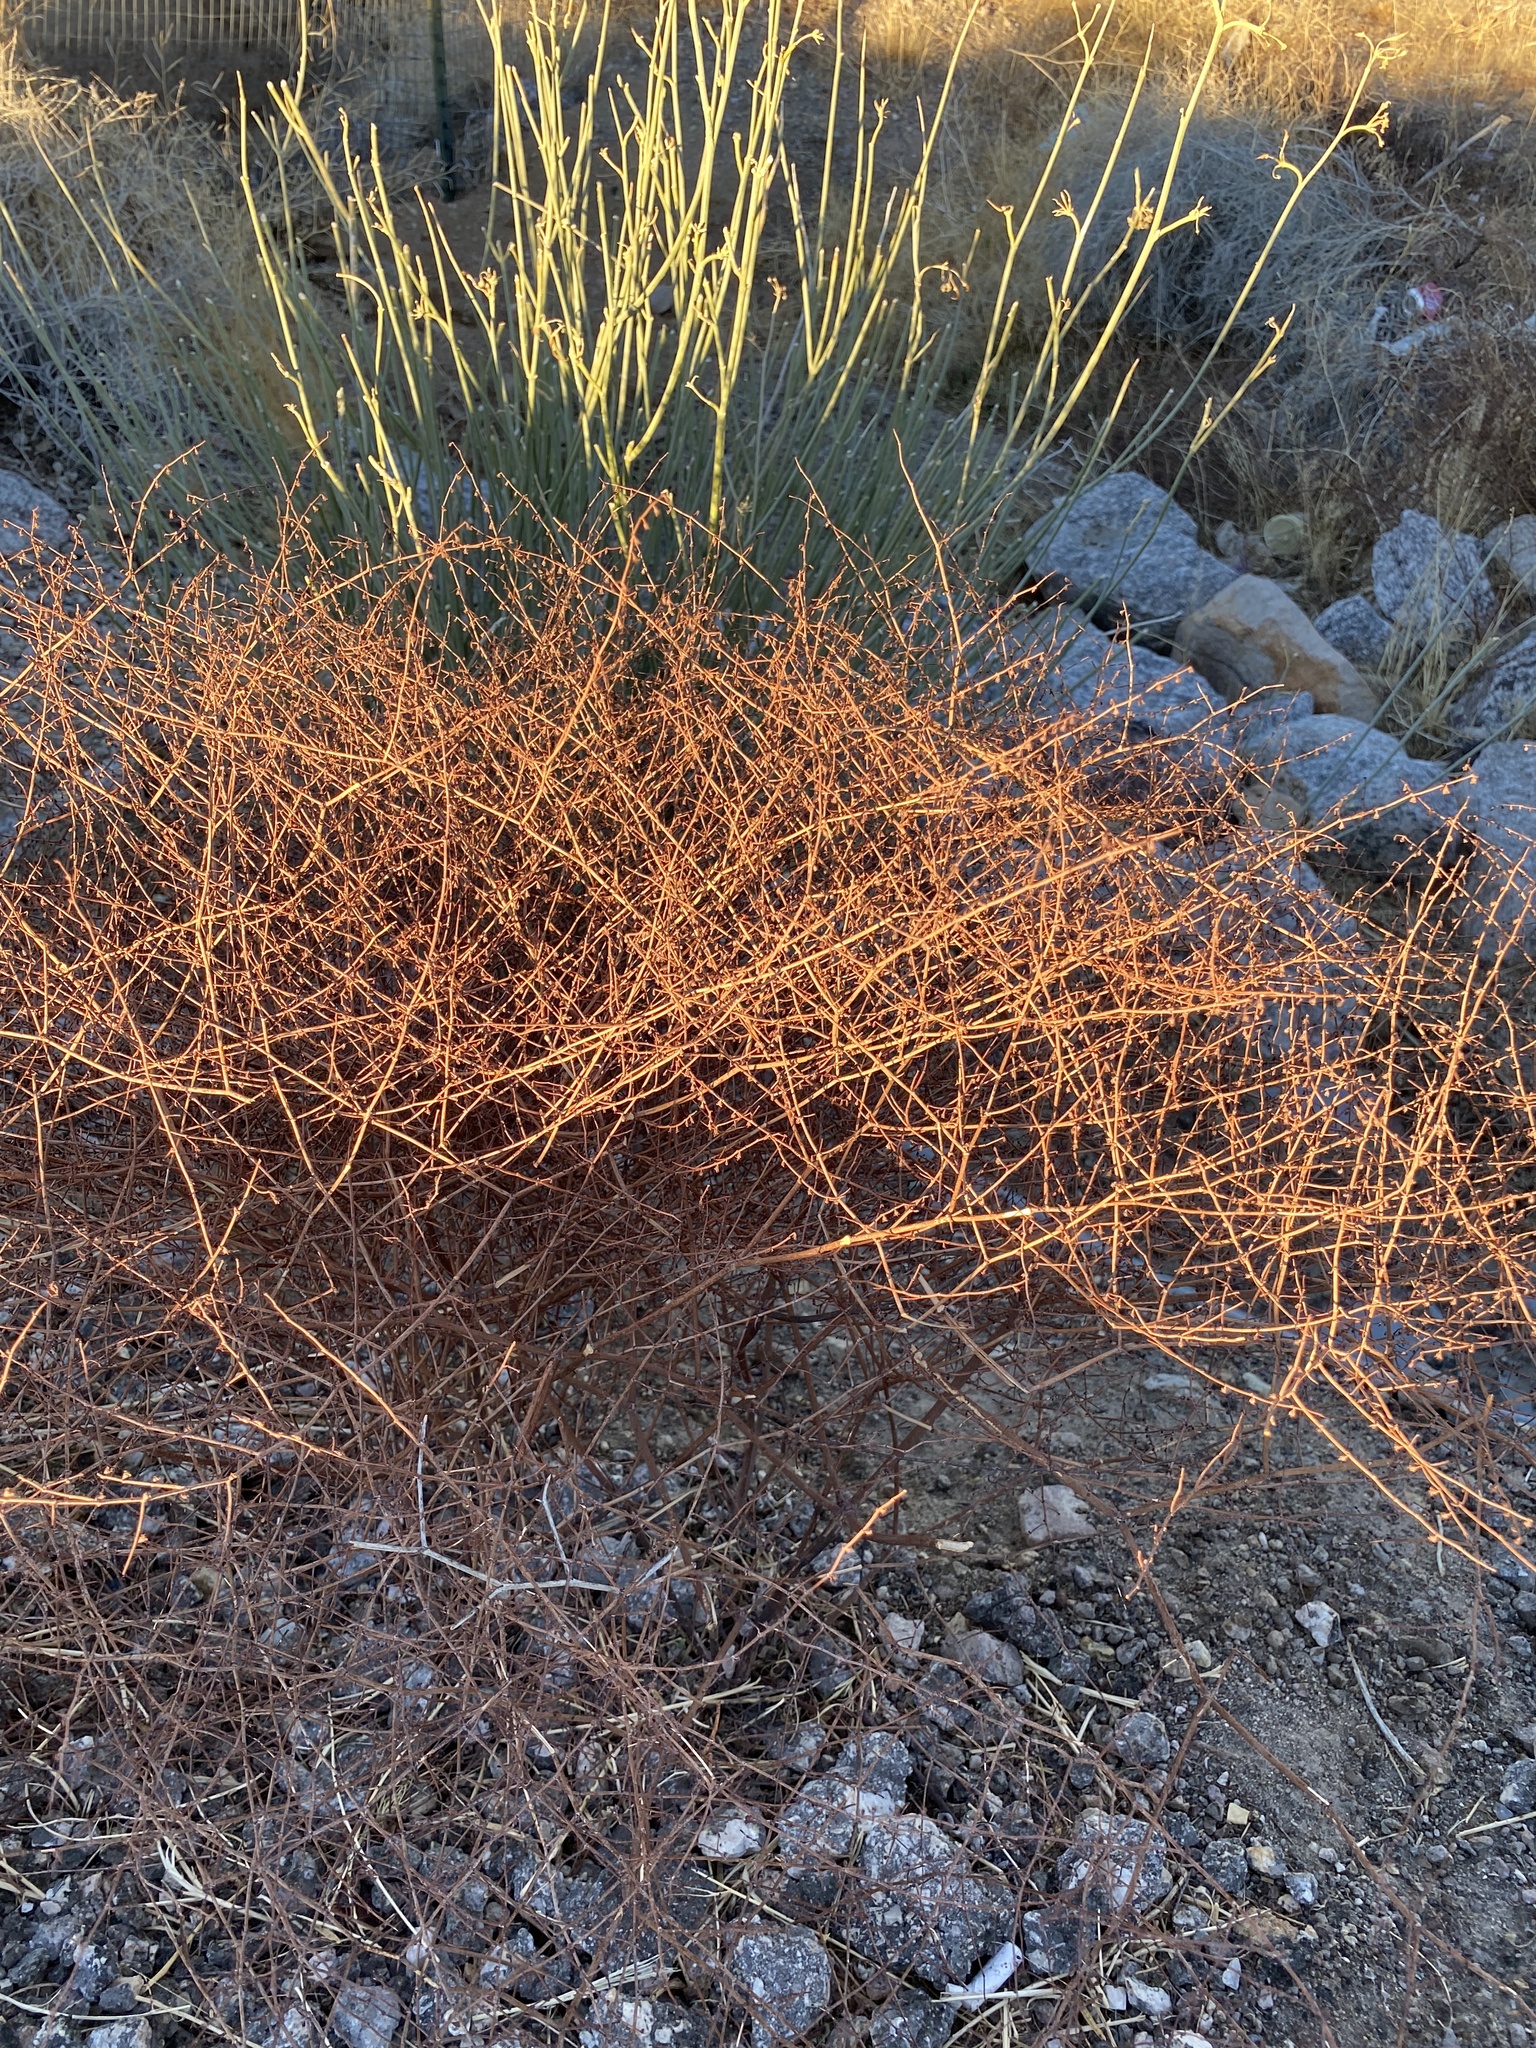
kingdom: Plantae
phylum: Tracheophyta
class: Magnoliopsida
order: Caryophyllales
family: Polygonaceae
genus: Eriogonum
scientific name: Eriogonum deflexum
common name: Skeleton-weed
